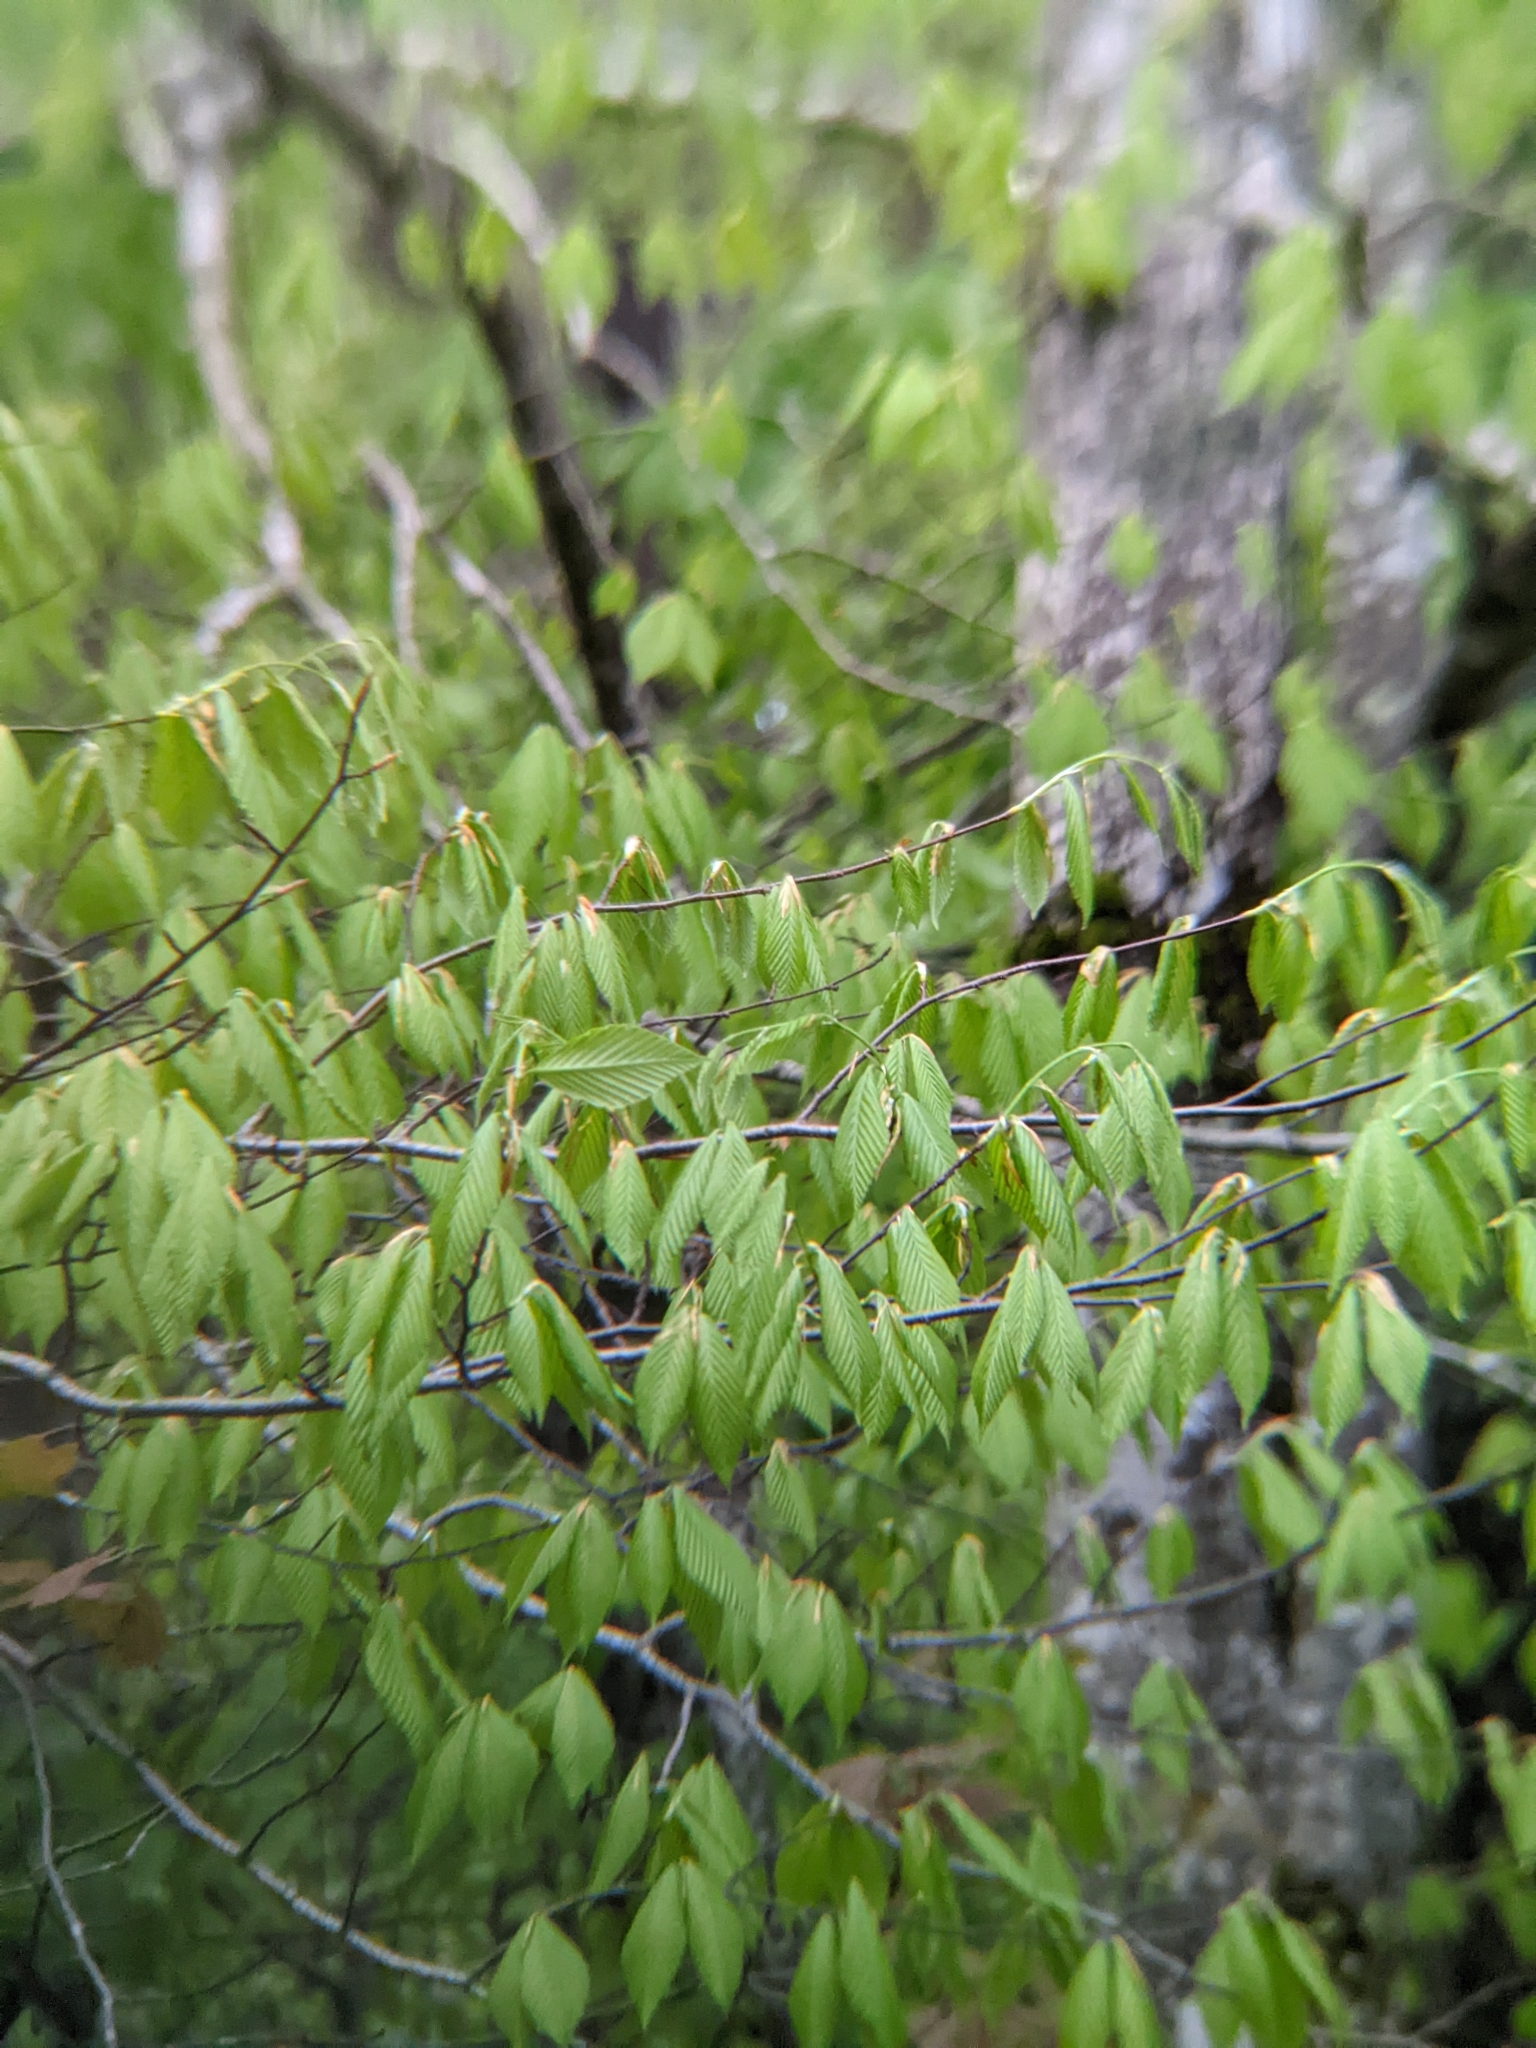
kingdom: Plantae
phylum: Tracheophyta
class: Magnoliopsida
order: Fagales
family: Fagaceae
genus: Fagus
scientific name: Fagus grandifolia
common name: American beech
